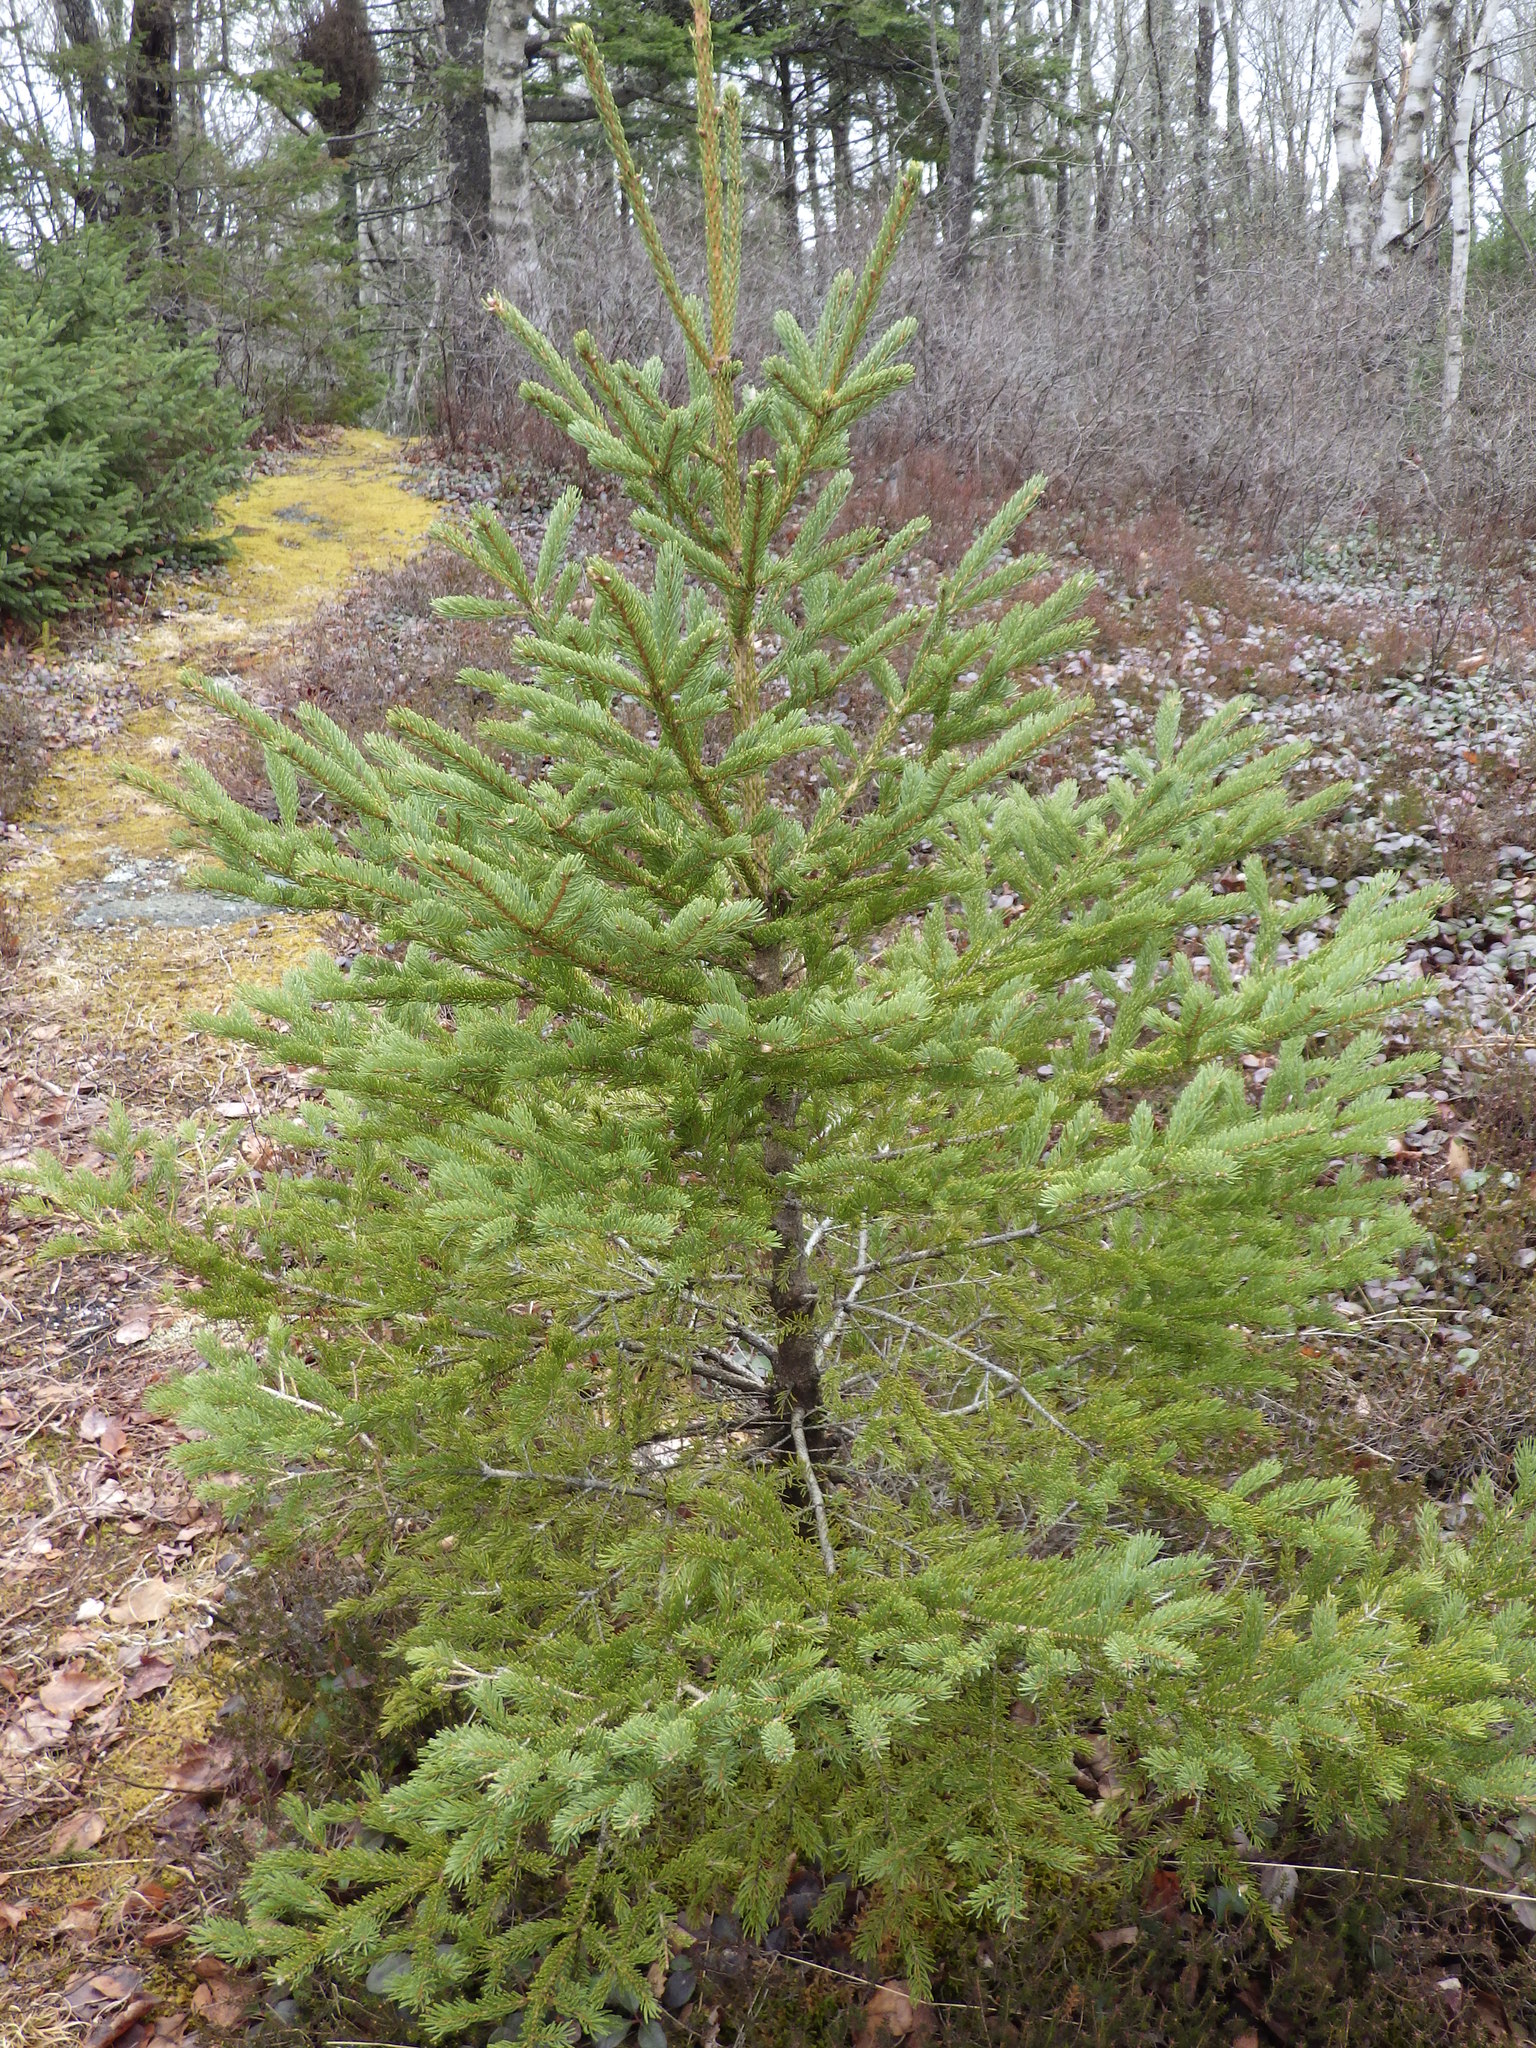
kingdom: Plantae
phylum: Tracheophyta
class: Pinopsida
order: Pinales
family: Pinaceae
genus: Picea
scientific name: Picea glauca
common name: White spruce
